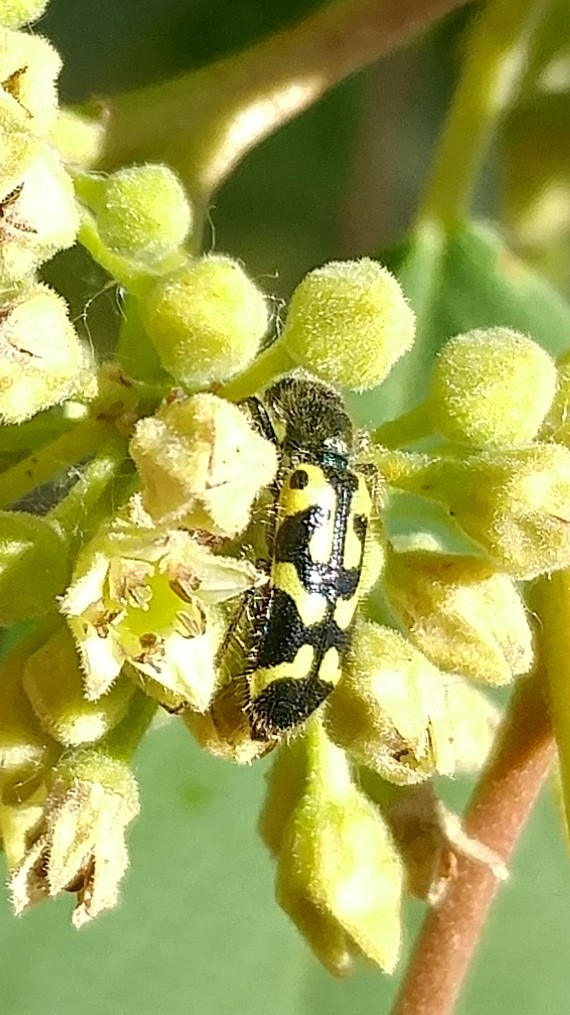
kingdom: Animalia
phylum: Arthropoda
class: Insecta
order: Coleoptera
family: Cleridae
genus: Trichodes
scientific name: Trichodes ornatus
